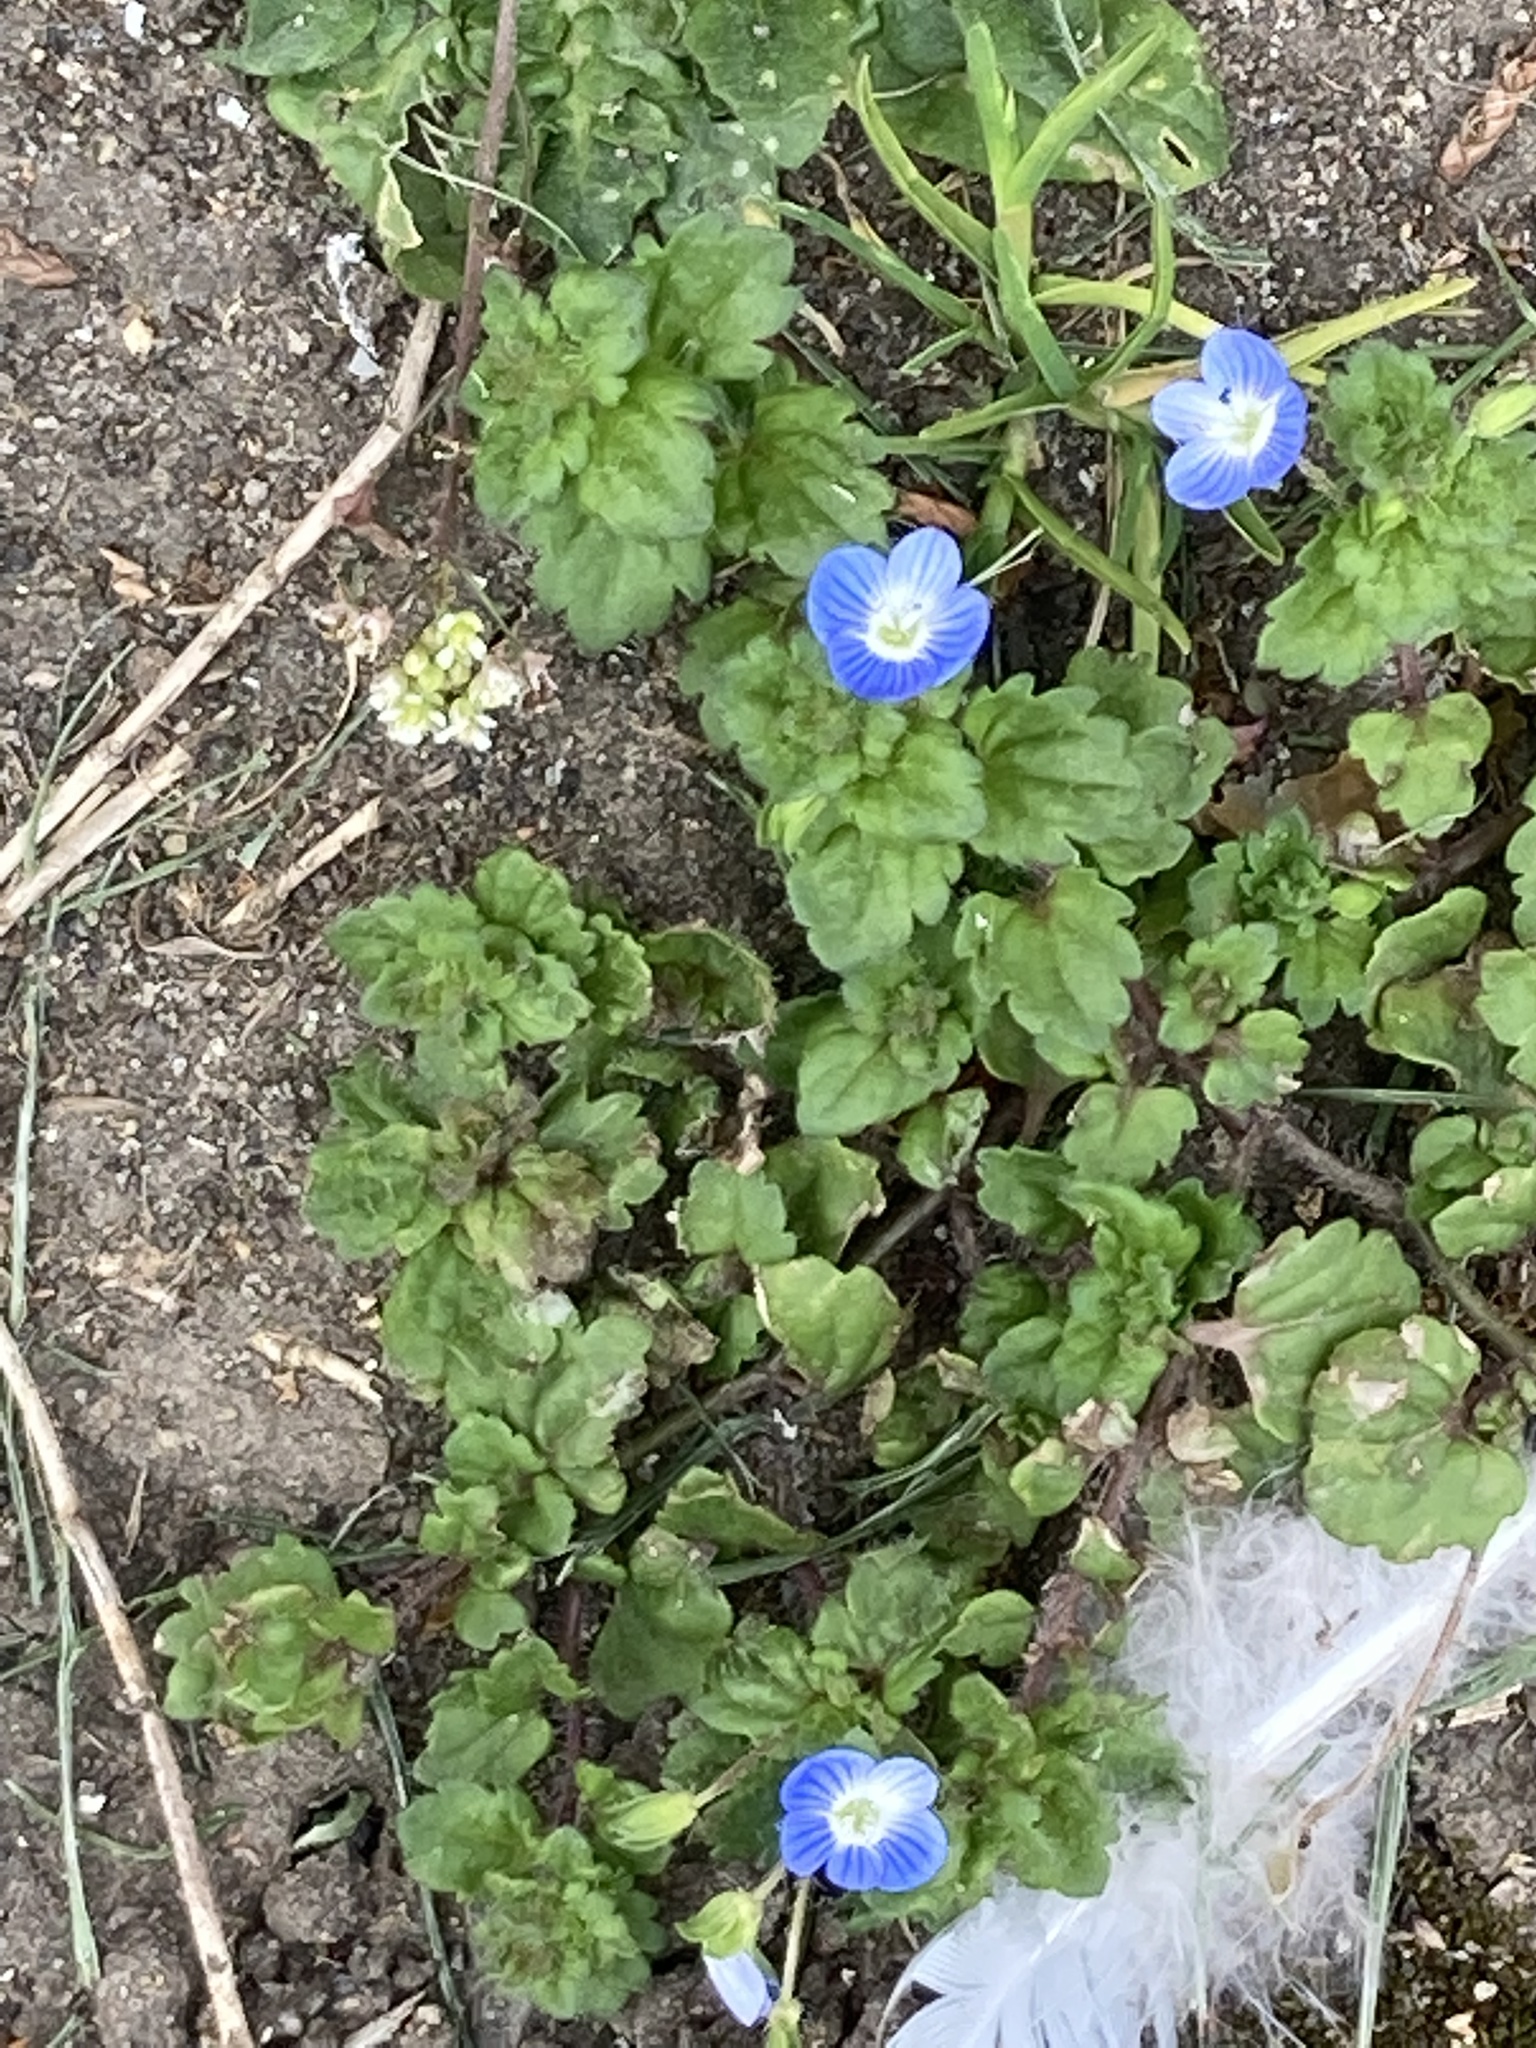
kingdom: Plantae
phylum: Tracheophyta
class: Magnoliopsida
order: Lamiales
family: Plantaginaceae
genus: Veronica
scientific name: Veronica persica
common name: Common field-speedwell
